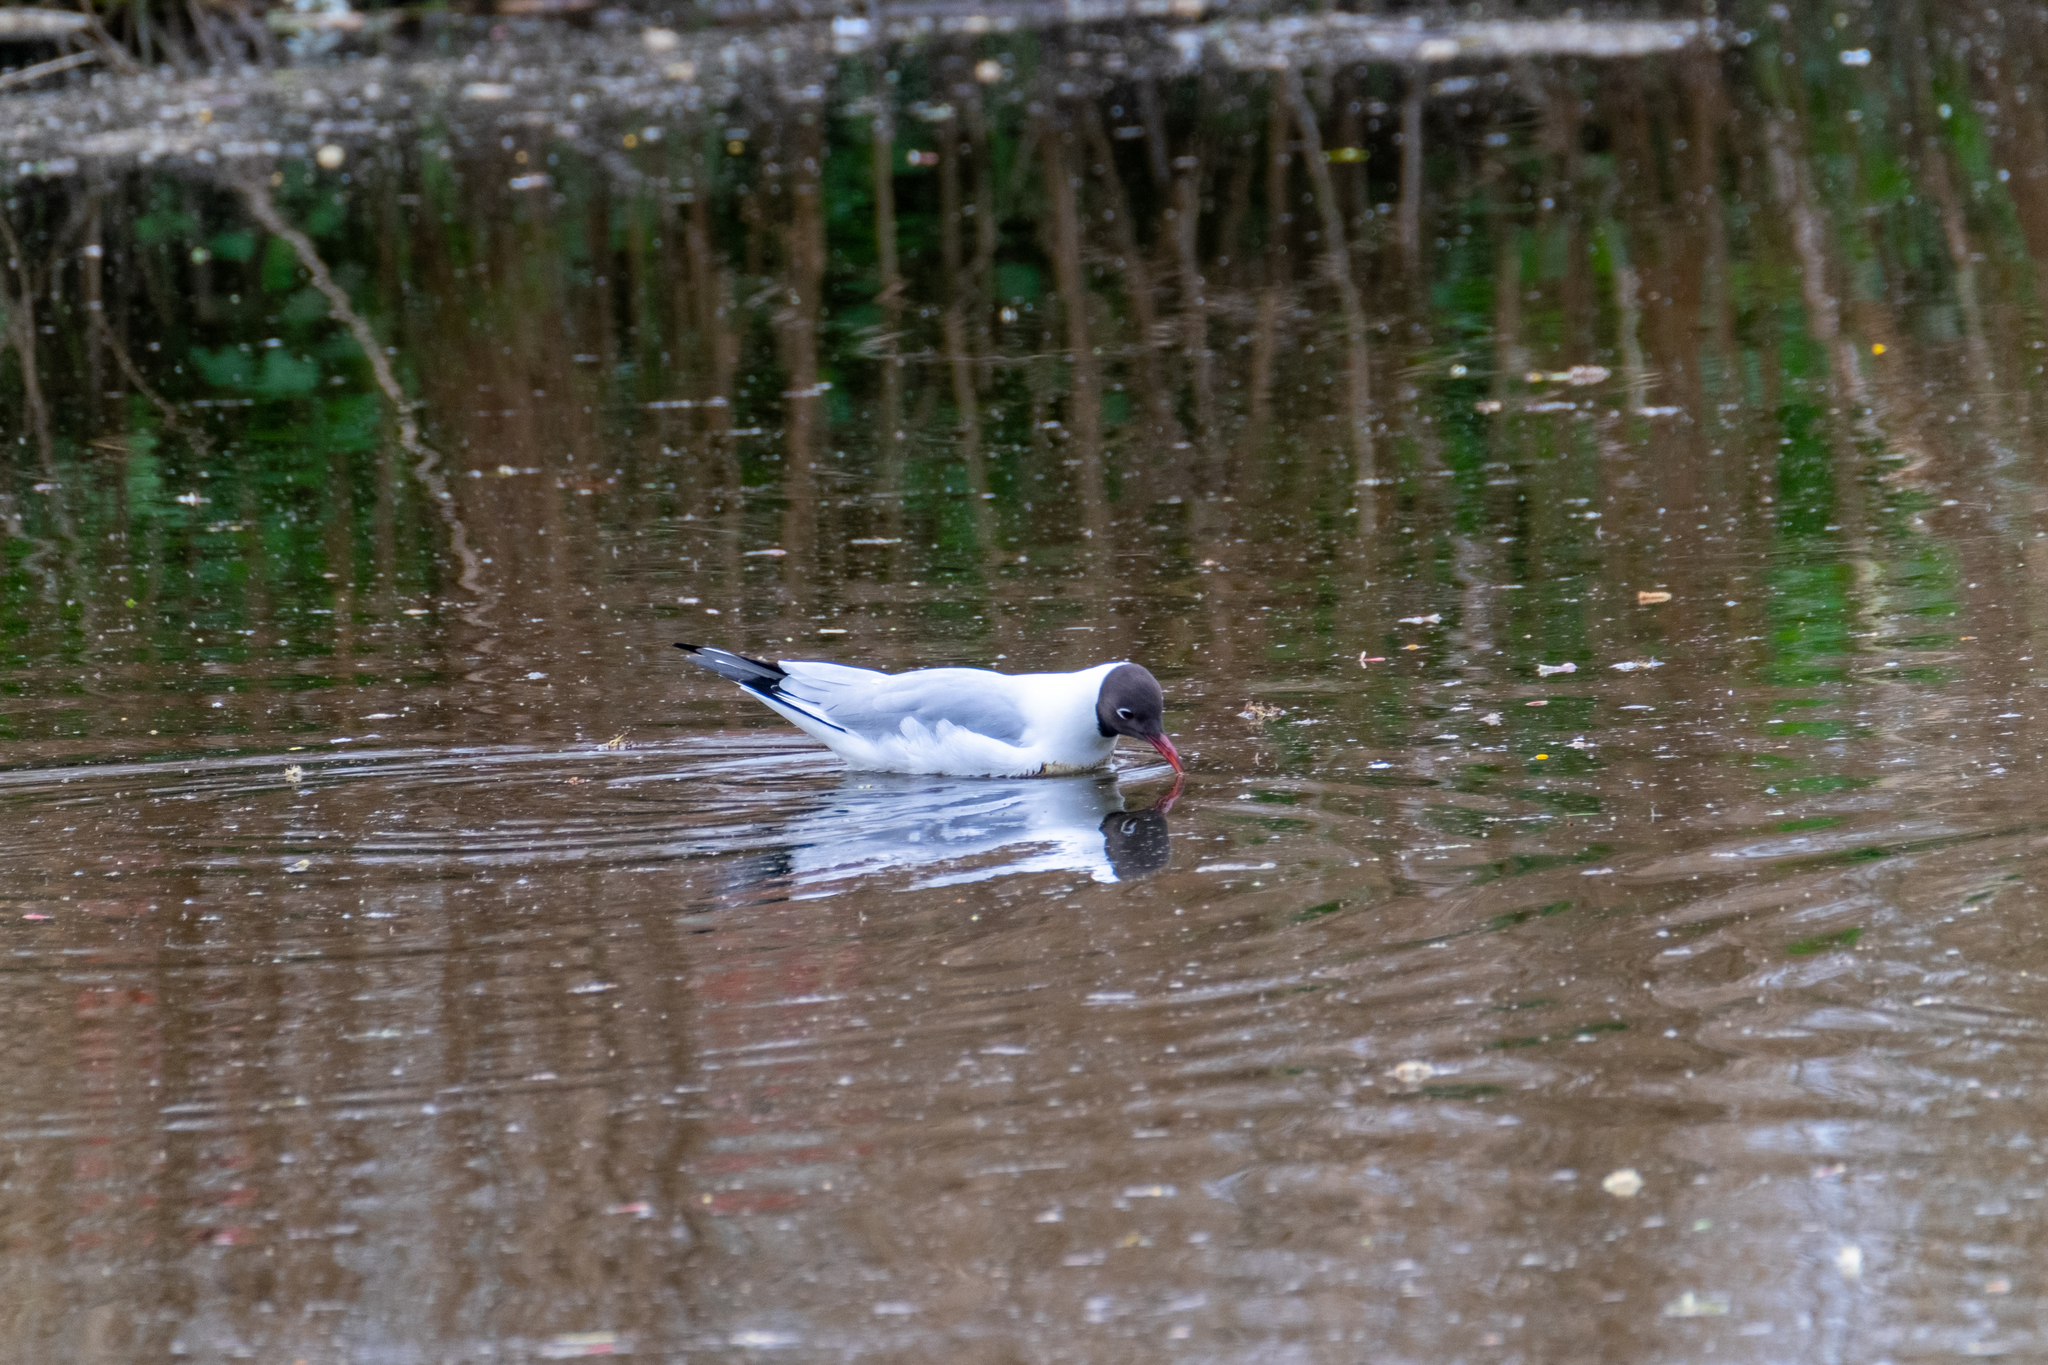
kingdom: Animalia
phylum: Chordata
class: Aves
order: Charadriiformes
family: Laridae
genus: Chroicocephalus
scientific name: Chroicocephalus ridibundus
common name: Black-headed gull
